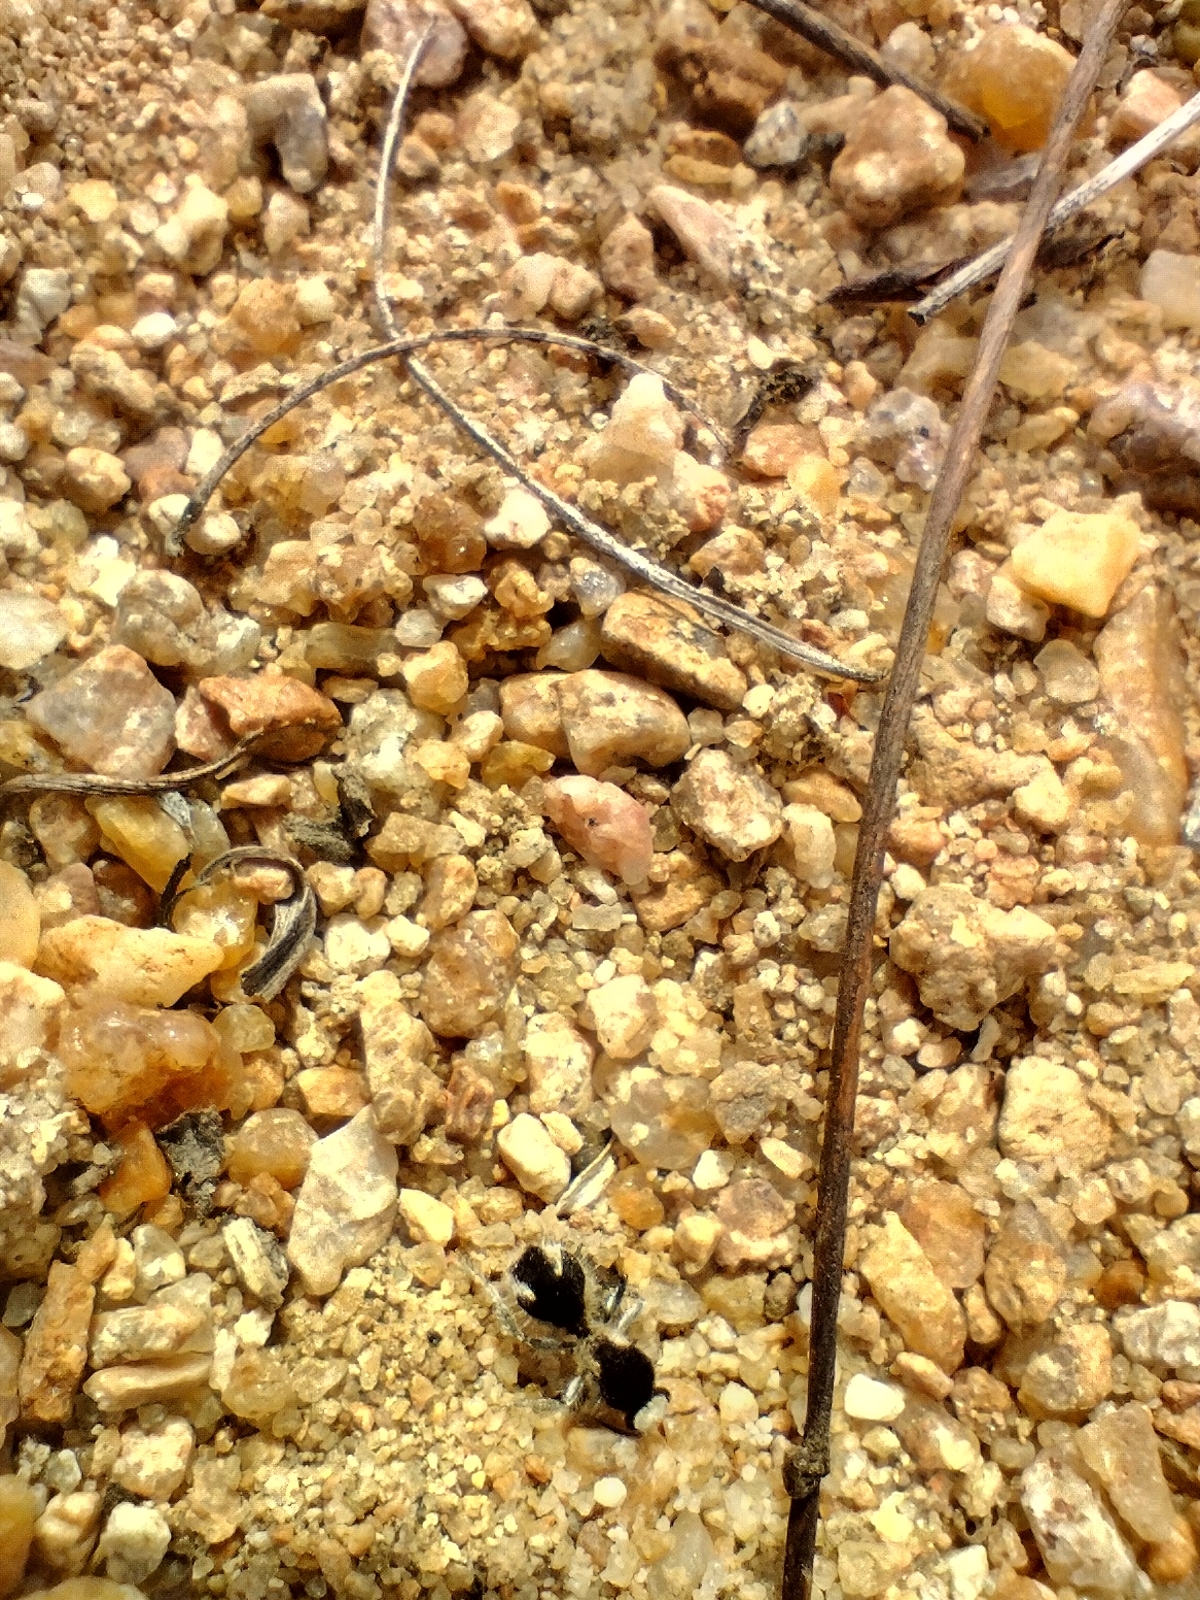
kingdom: Animalia
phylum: Arthropoda
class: Insecta
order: Hymenoptera
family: Mutillidae
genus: Traumatomutilla
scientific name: Traumatomutilla bifurca
